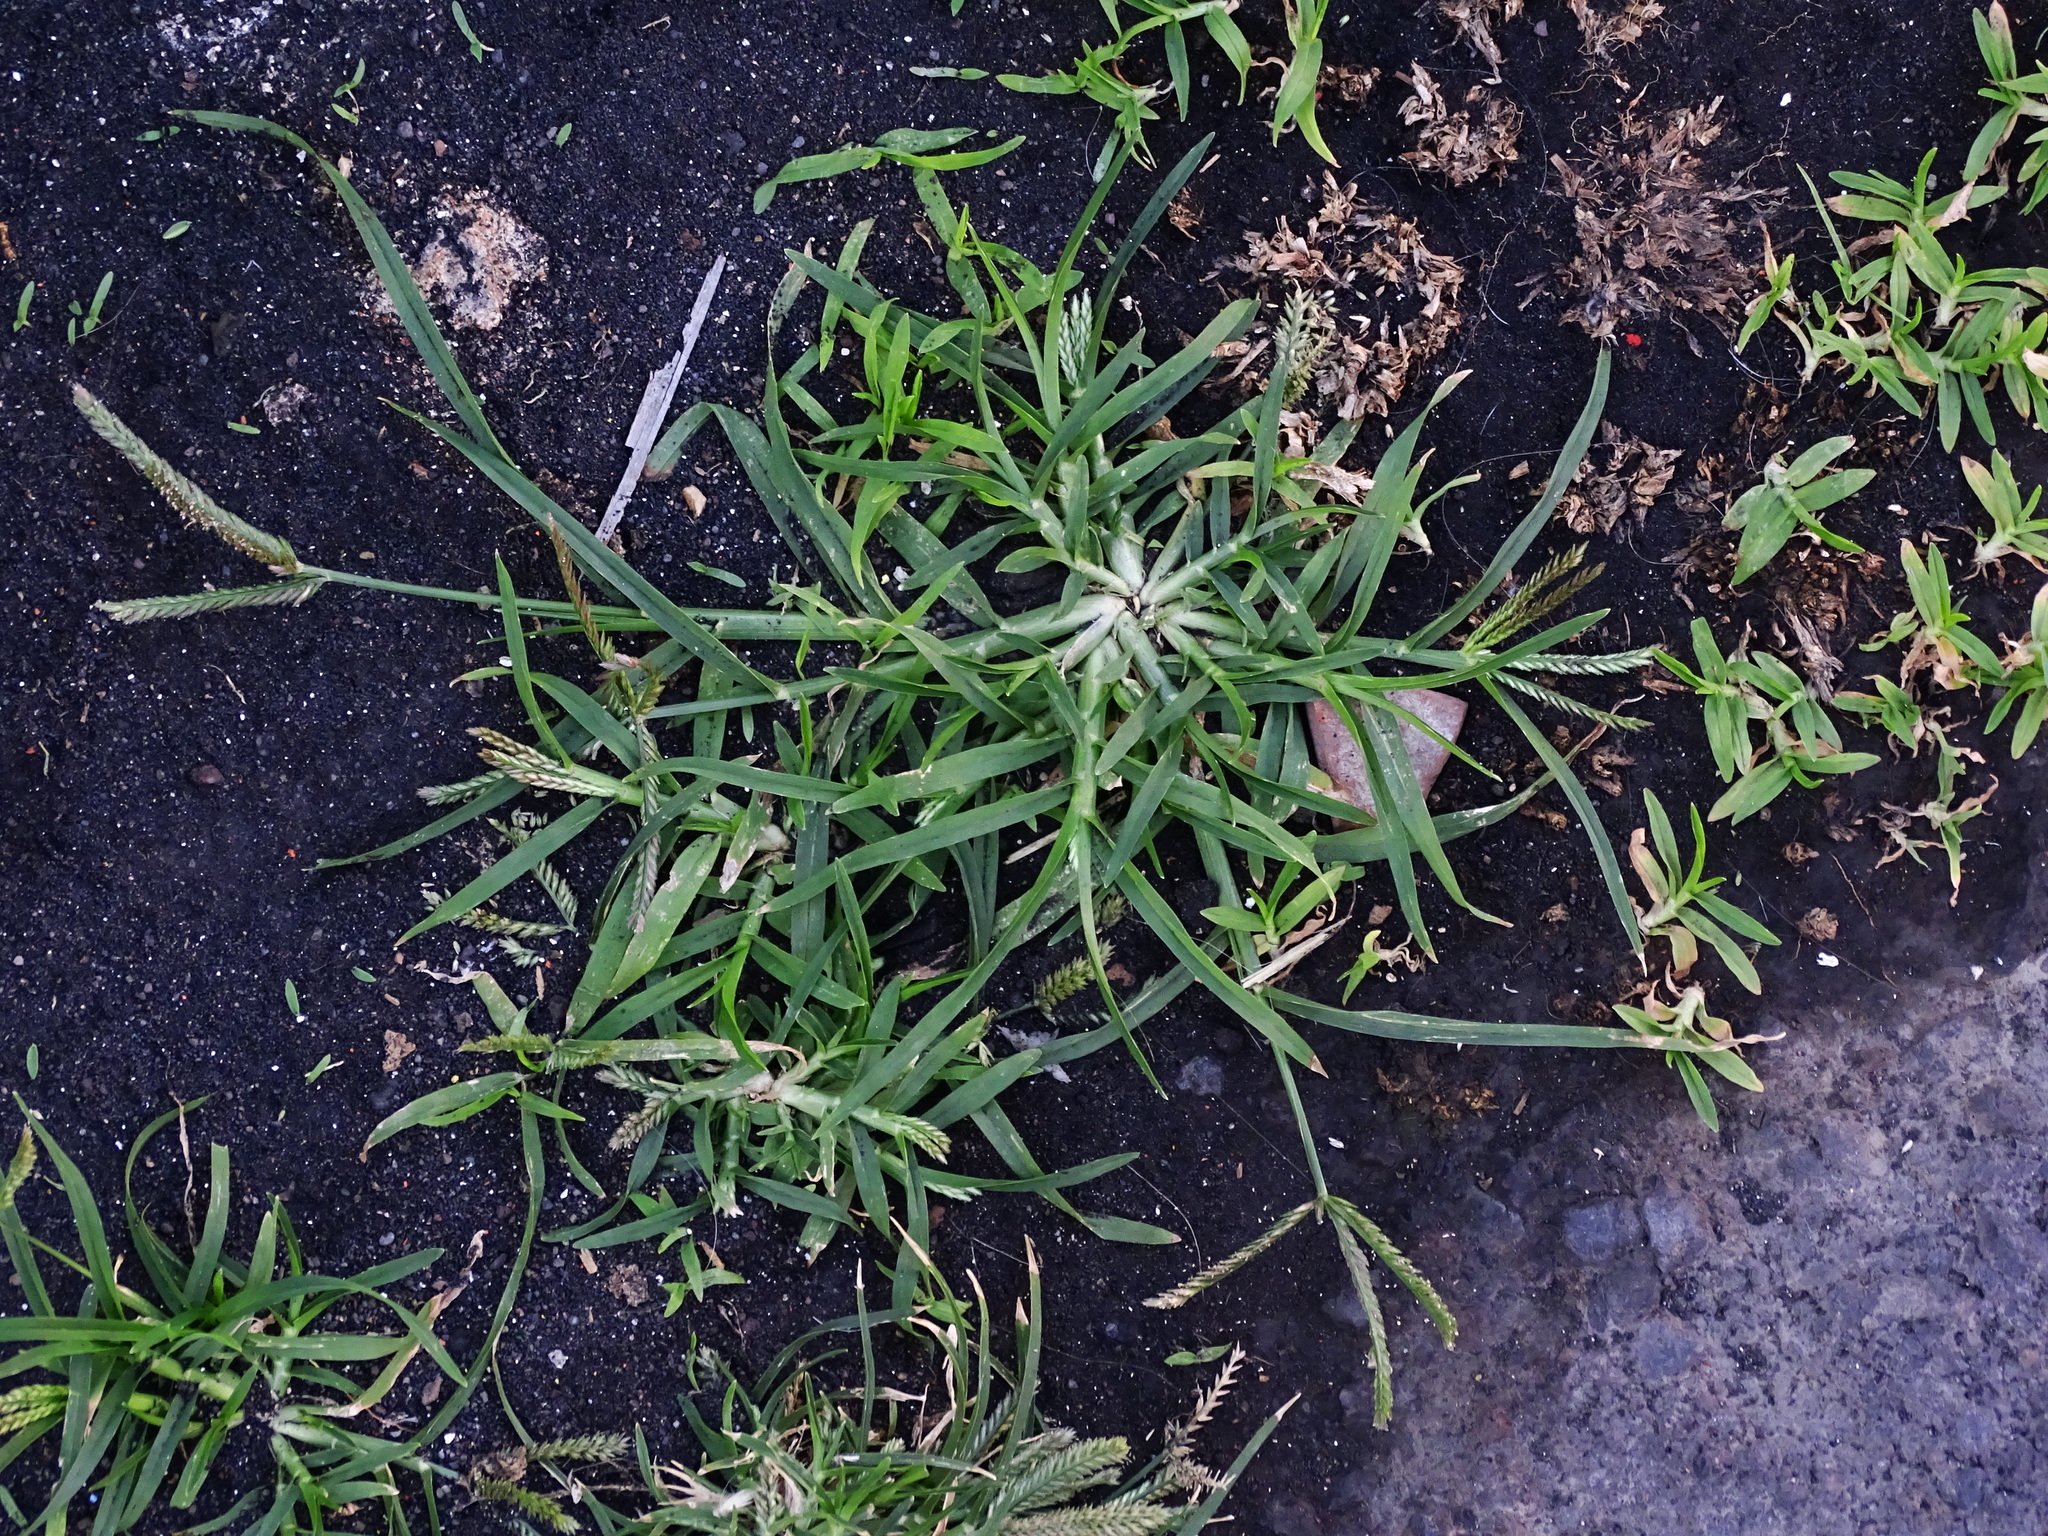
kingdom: Plantae
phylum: Tracheophyta
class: Liliopsida
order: Poales
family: Poaceae
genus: Eleusine
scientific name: Eleusine indica
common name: Yard-grass
